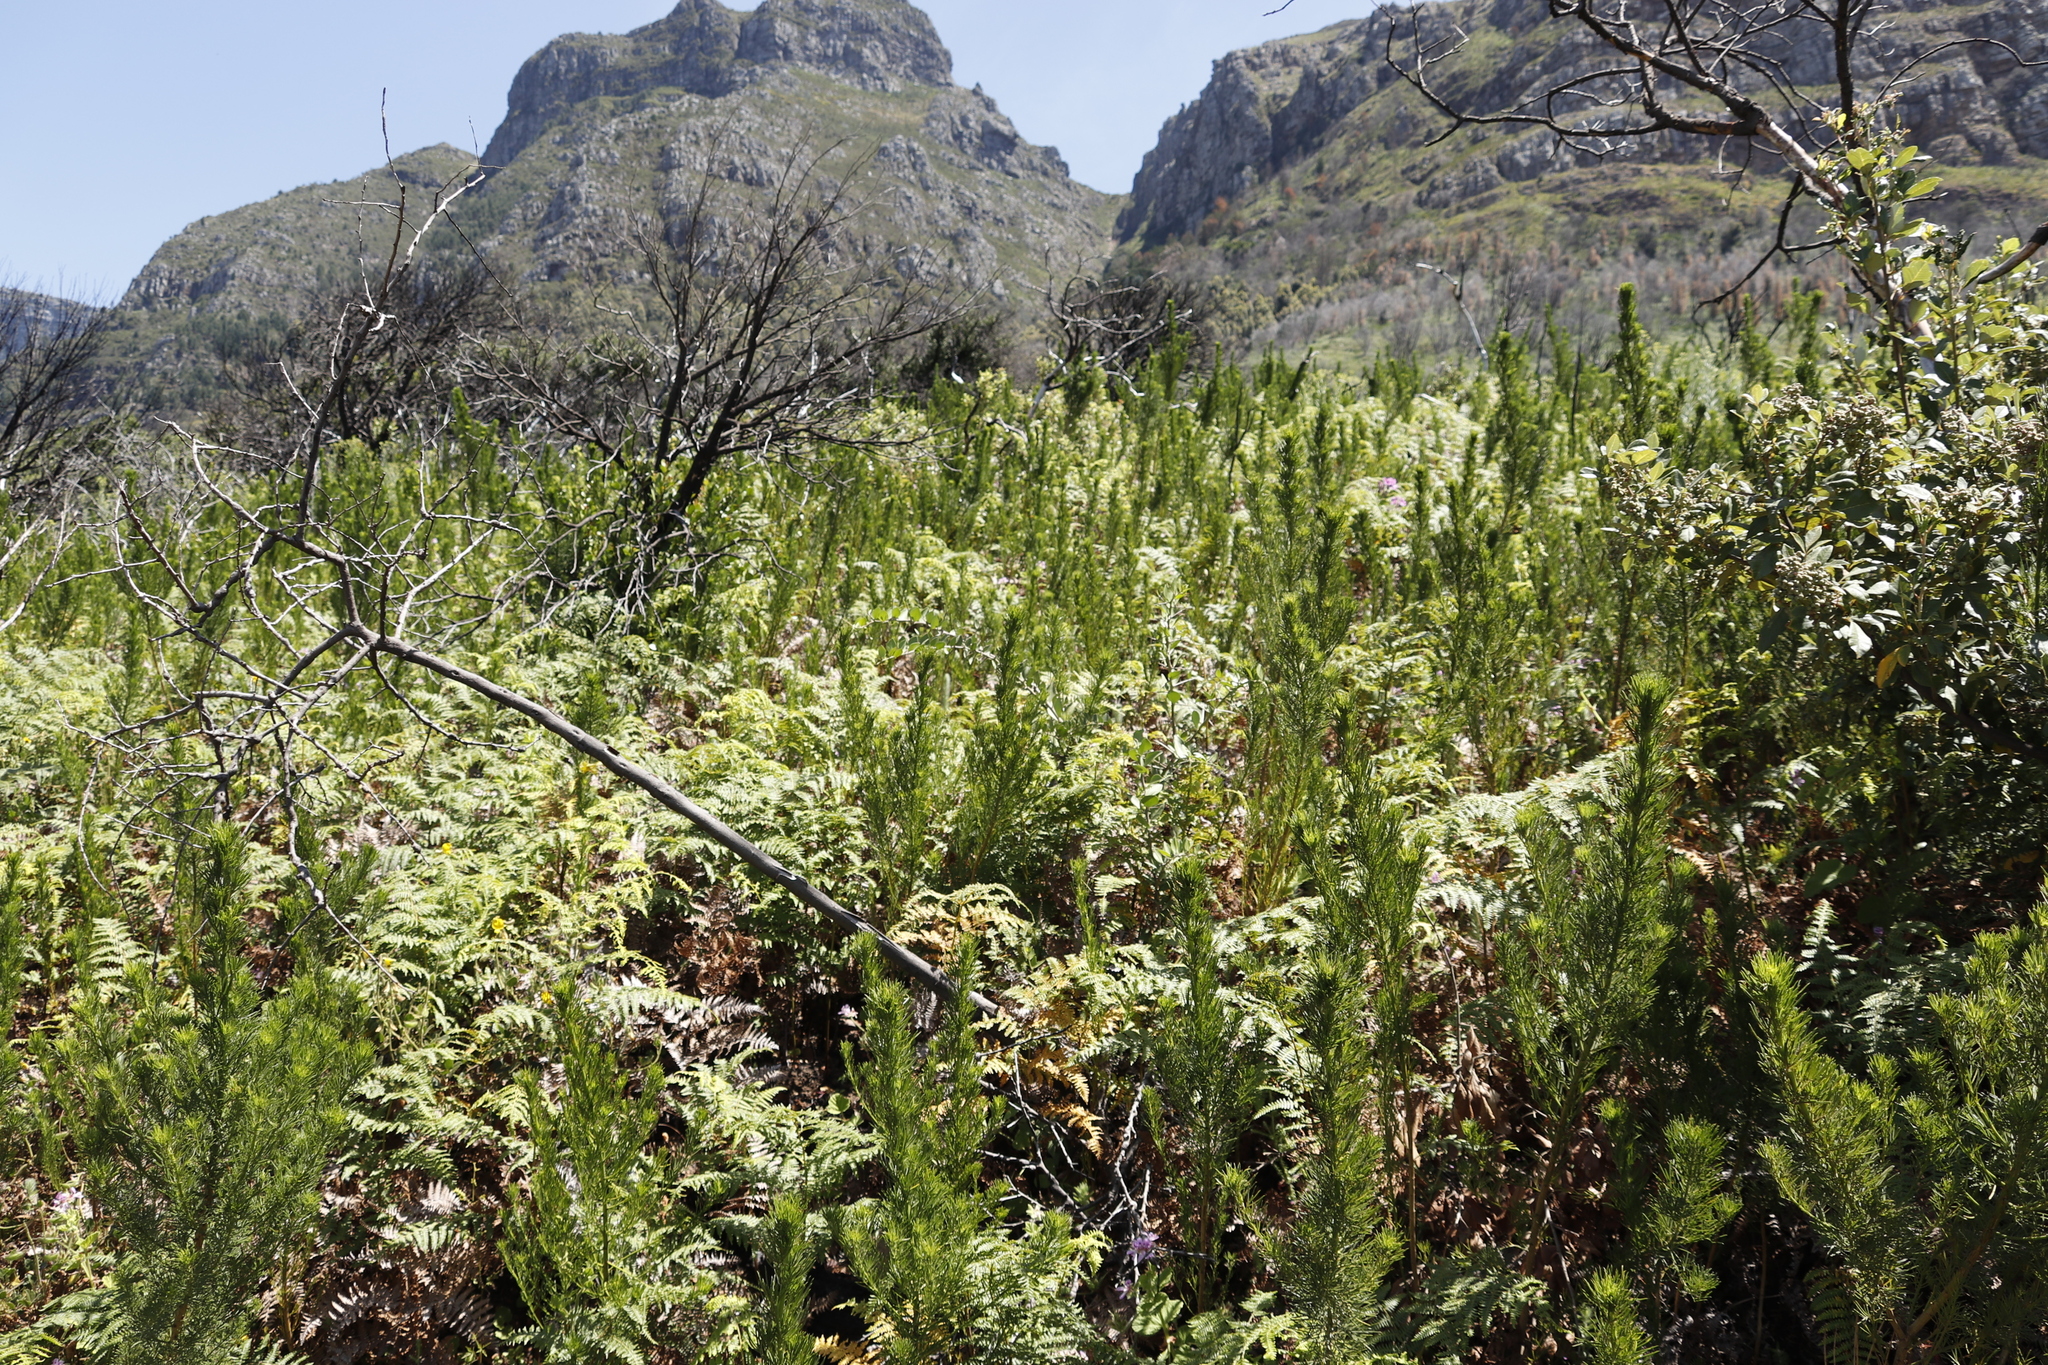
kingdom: Plantae
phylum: Tracheophyta
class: Magnoliopsida
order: Fabales
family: Fabaceae
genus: Psoralea
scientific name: Psoralea pinnata
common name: African scurfpea
